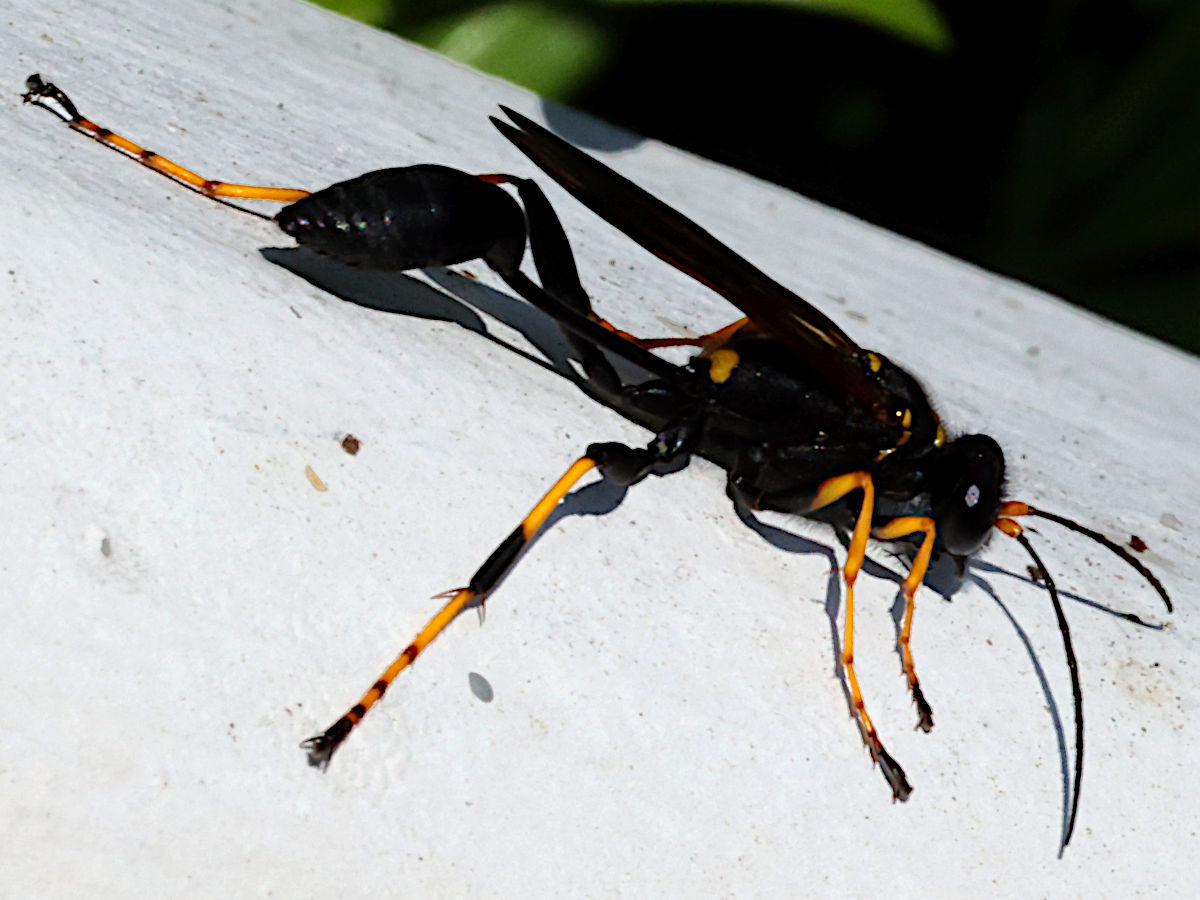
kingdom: Animalia
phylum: Arthropoda
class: Insecta
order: Hymenoptera
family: Sphecidae
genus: Sceliphron
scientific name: Sceliphron caementarium
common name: Mud dauber
